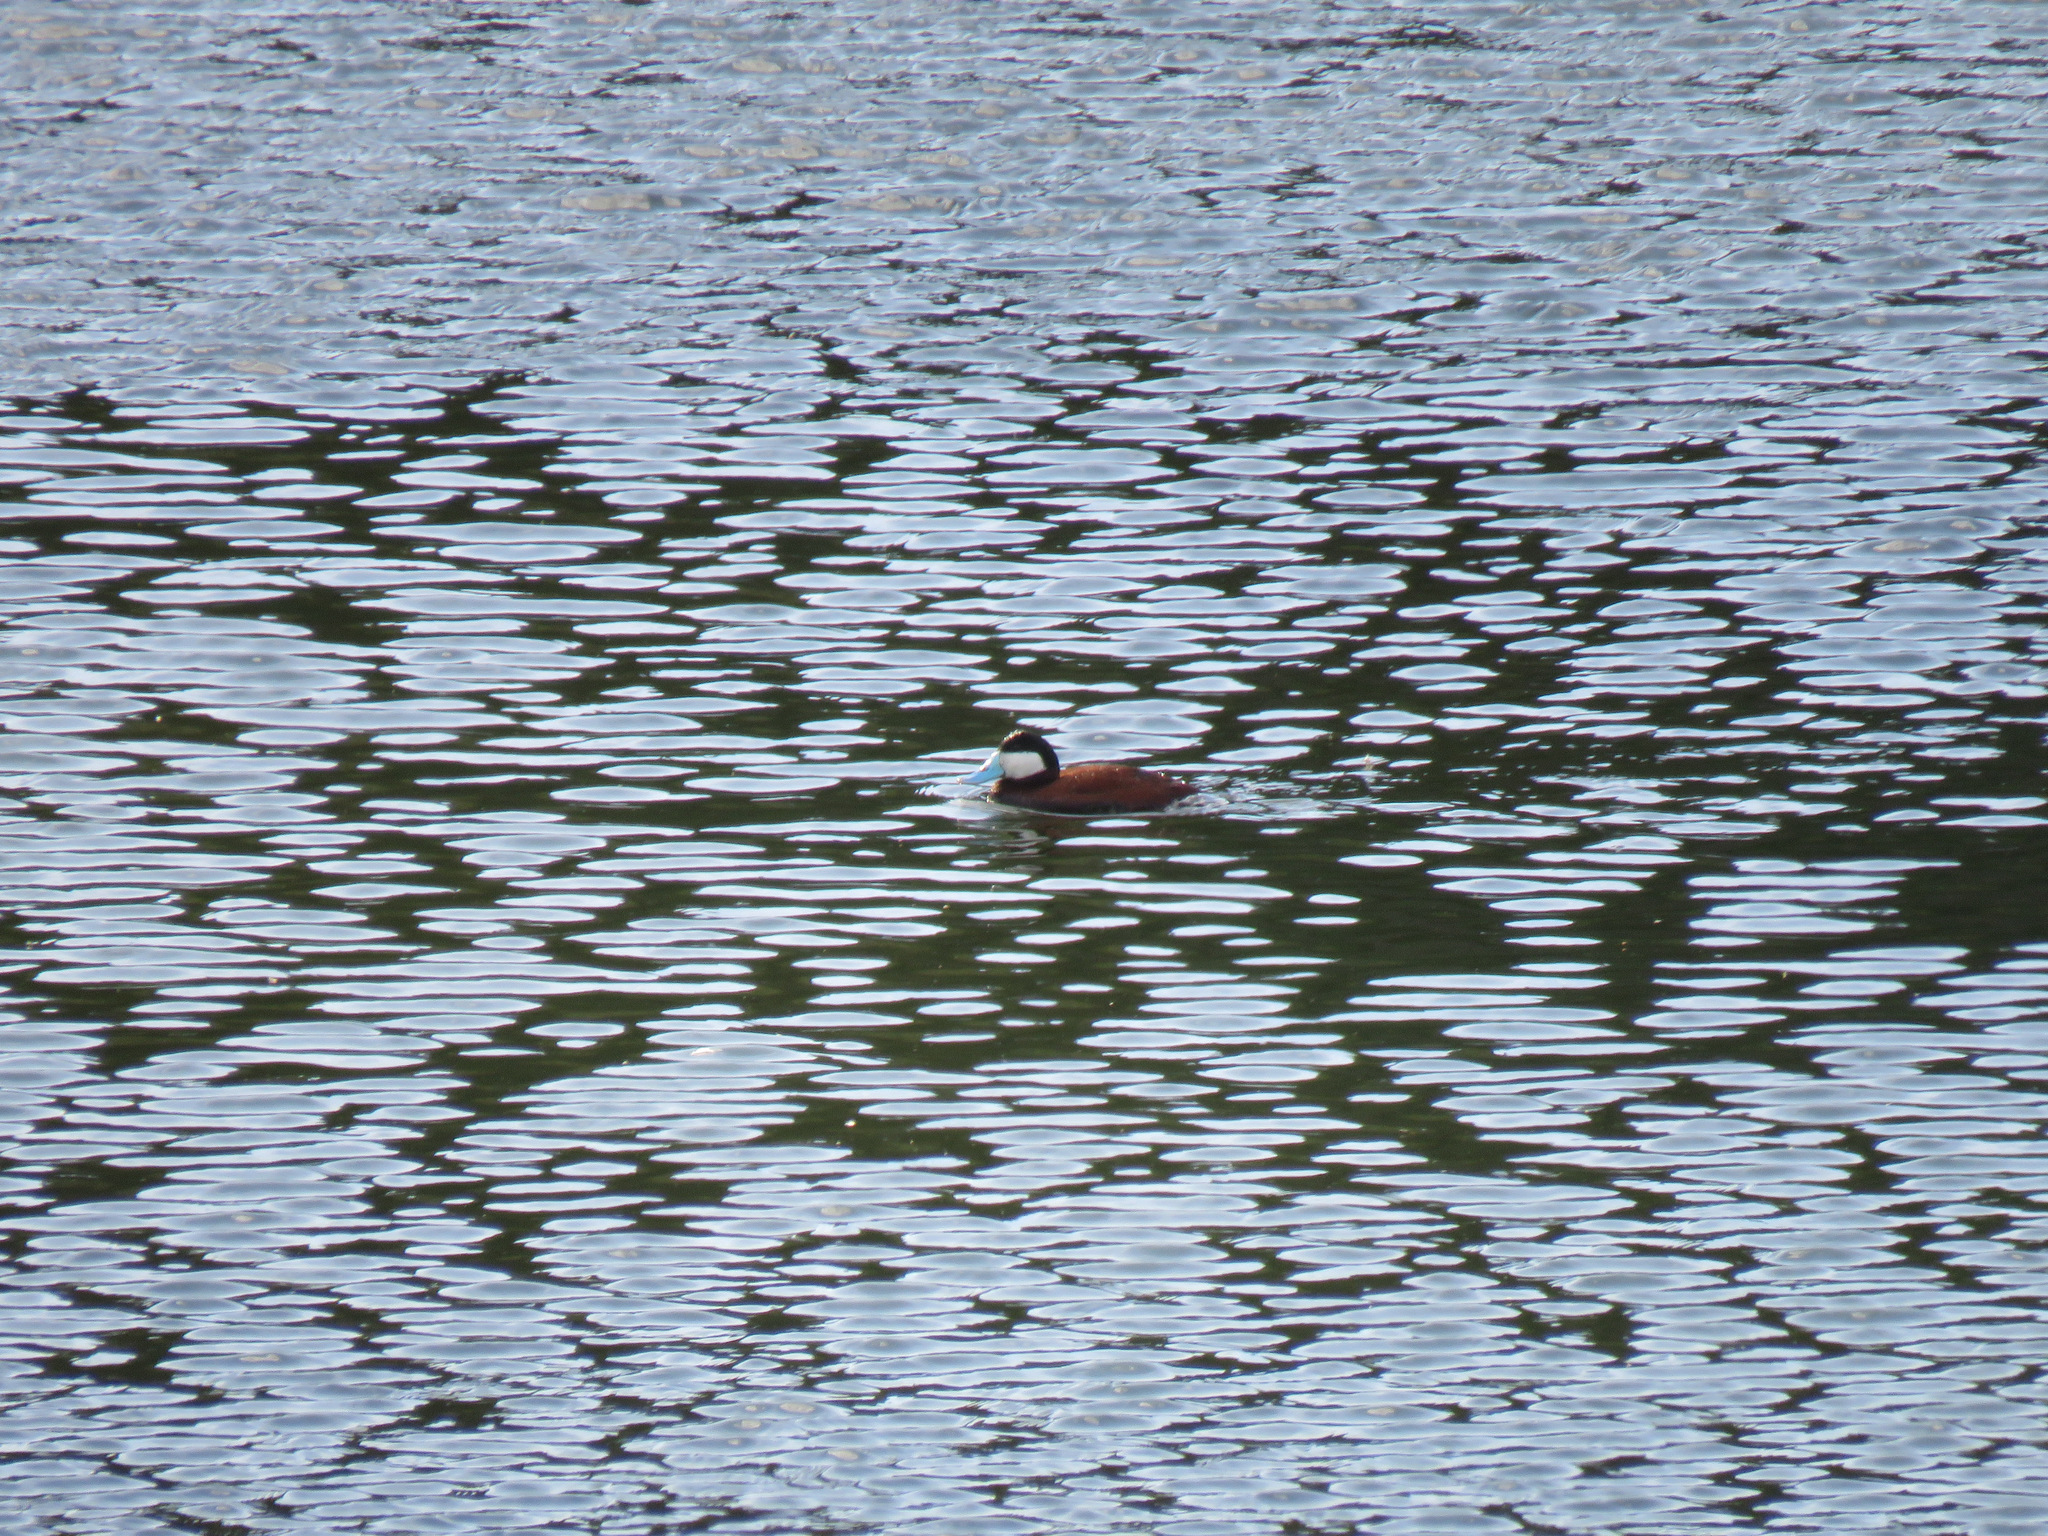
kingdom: Animalia
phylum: Chordata
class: Aves
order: Anseriformes
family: Anatidae
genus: Oxyura
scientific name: Oxyura jamaicensis
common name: Ruddy duck
